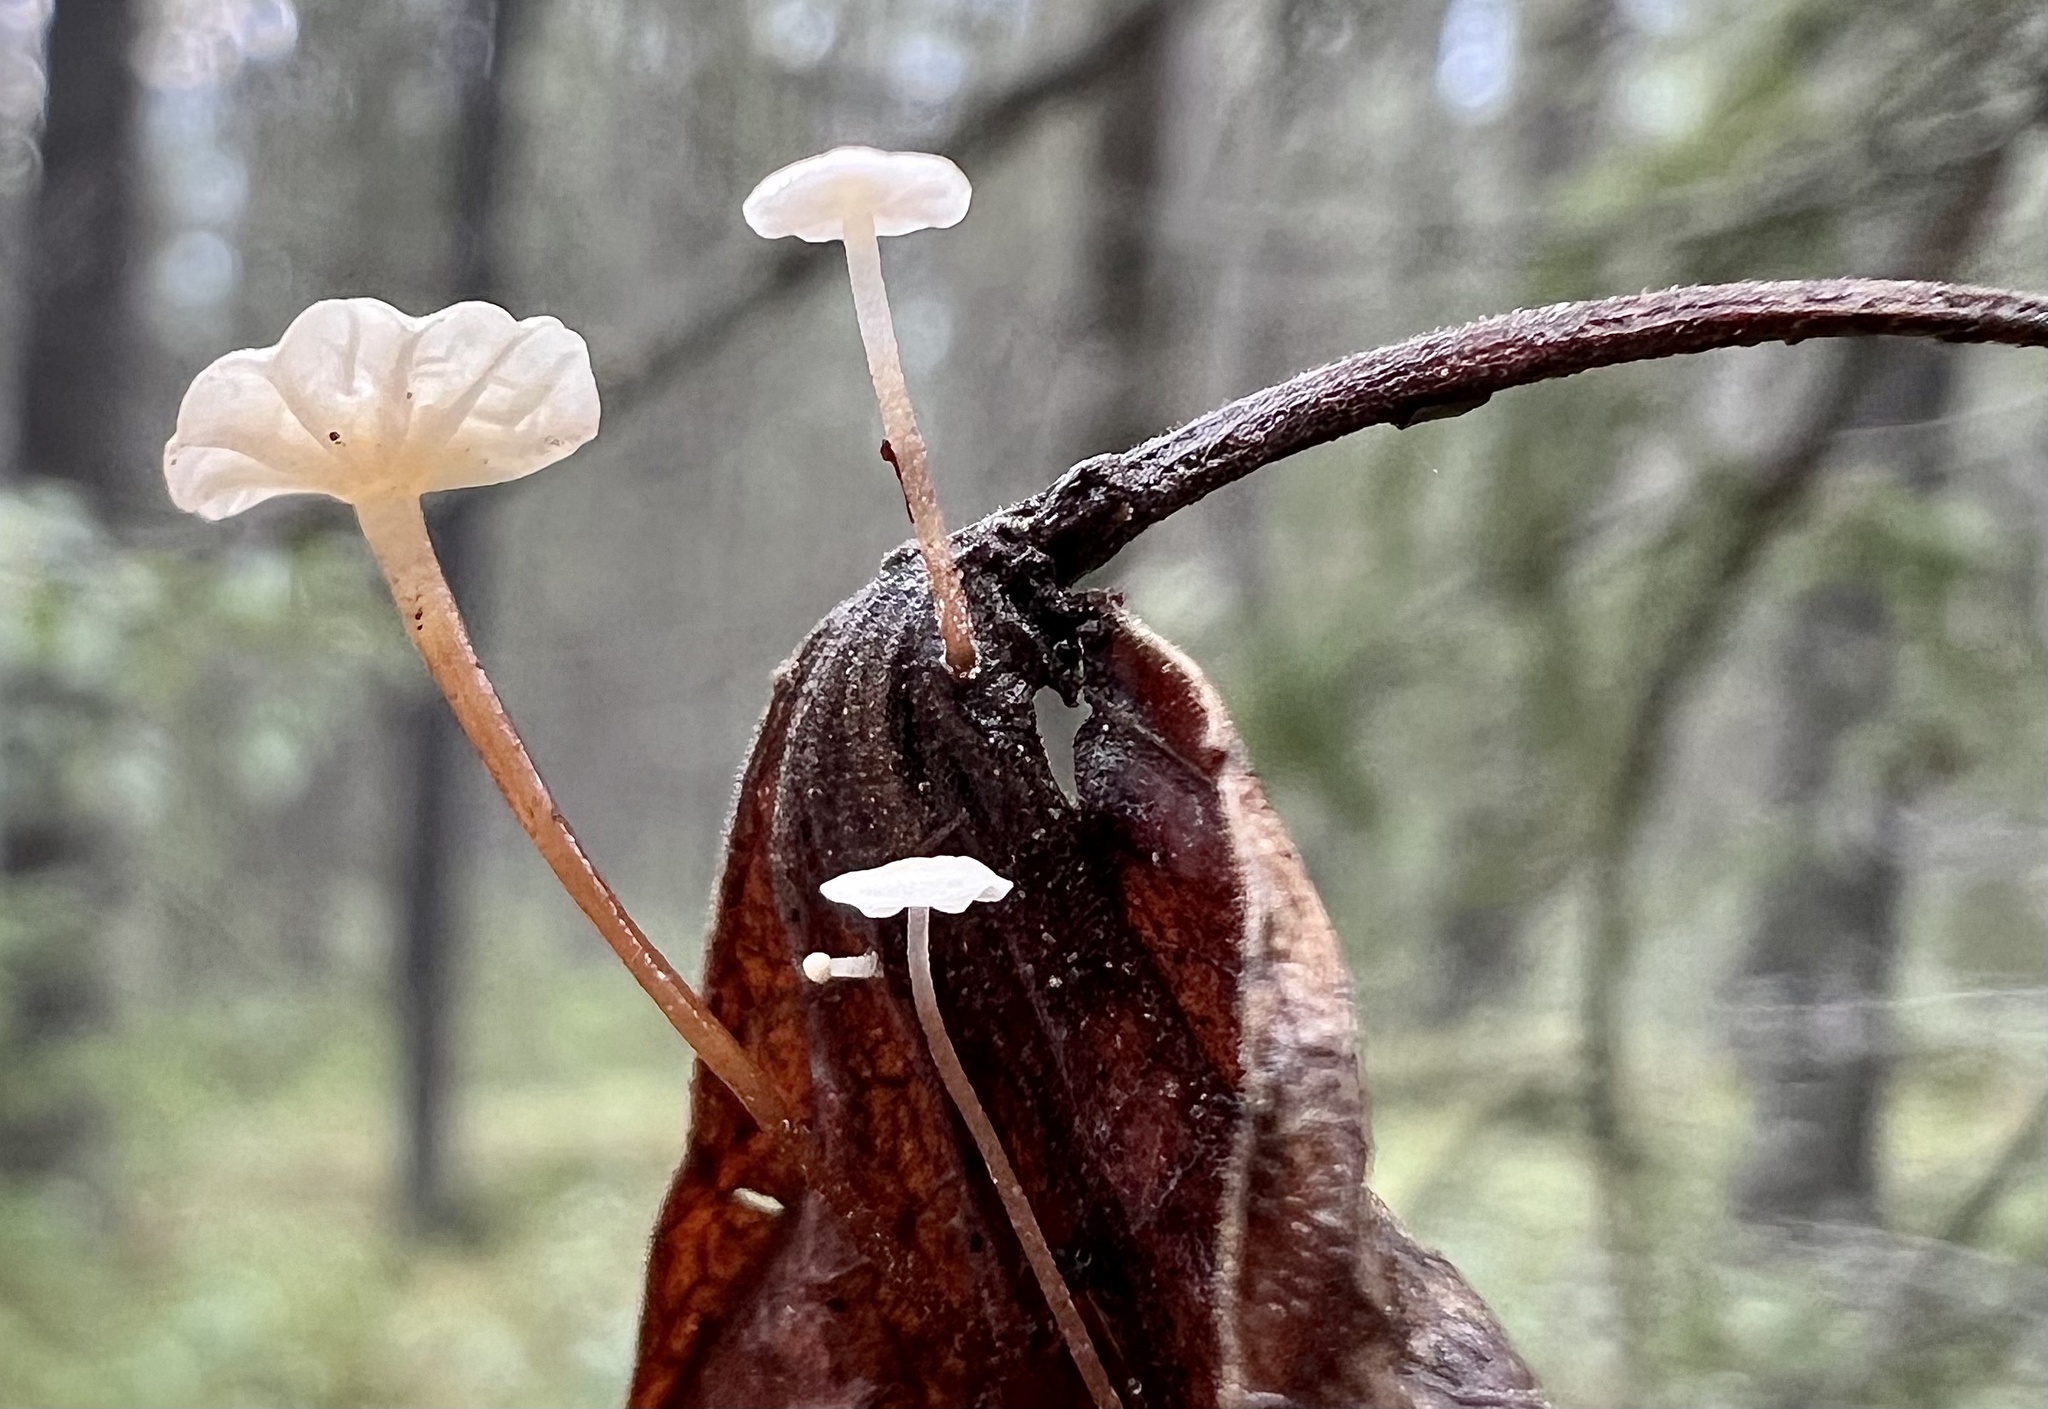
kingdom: Fungi
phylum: Basidiomycota
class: Agaricomycetes
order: Agaricales
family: Physalacriaceae
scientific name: Physalacriaceae
